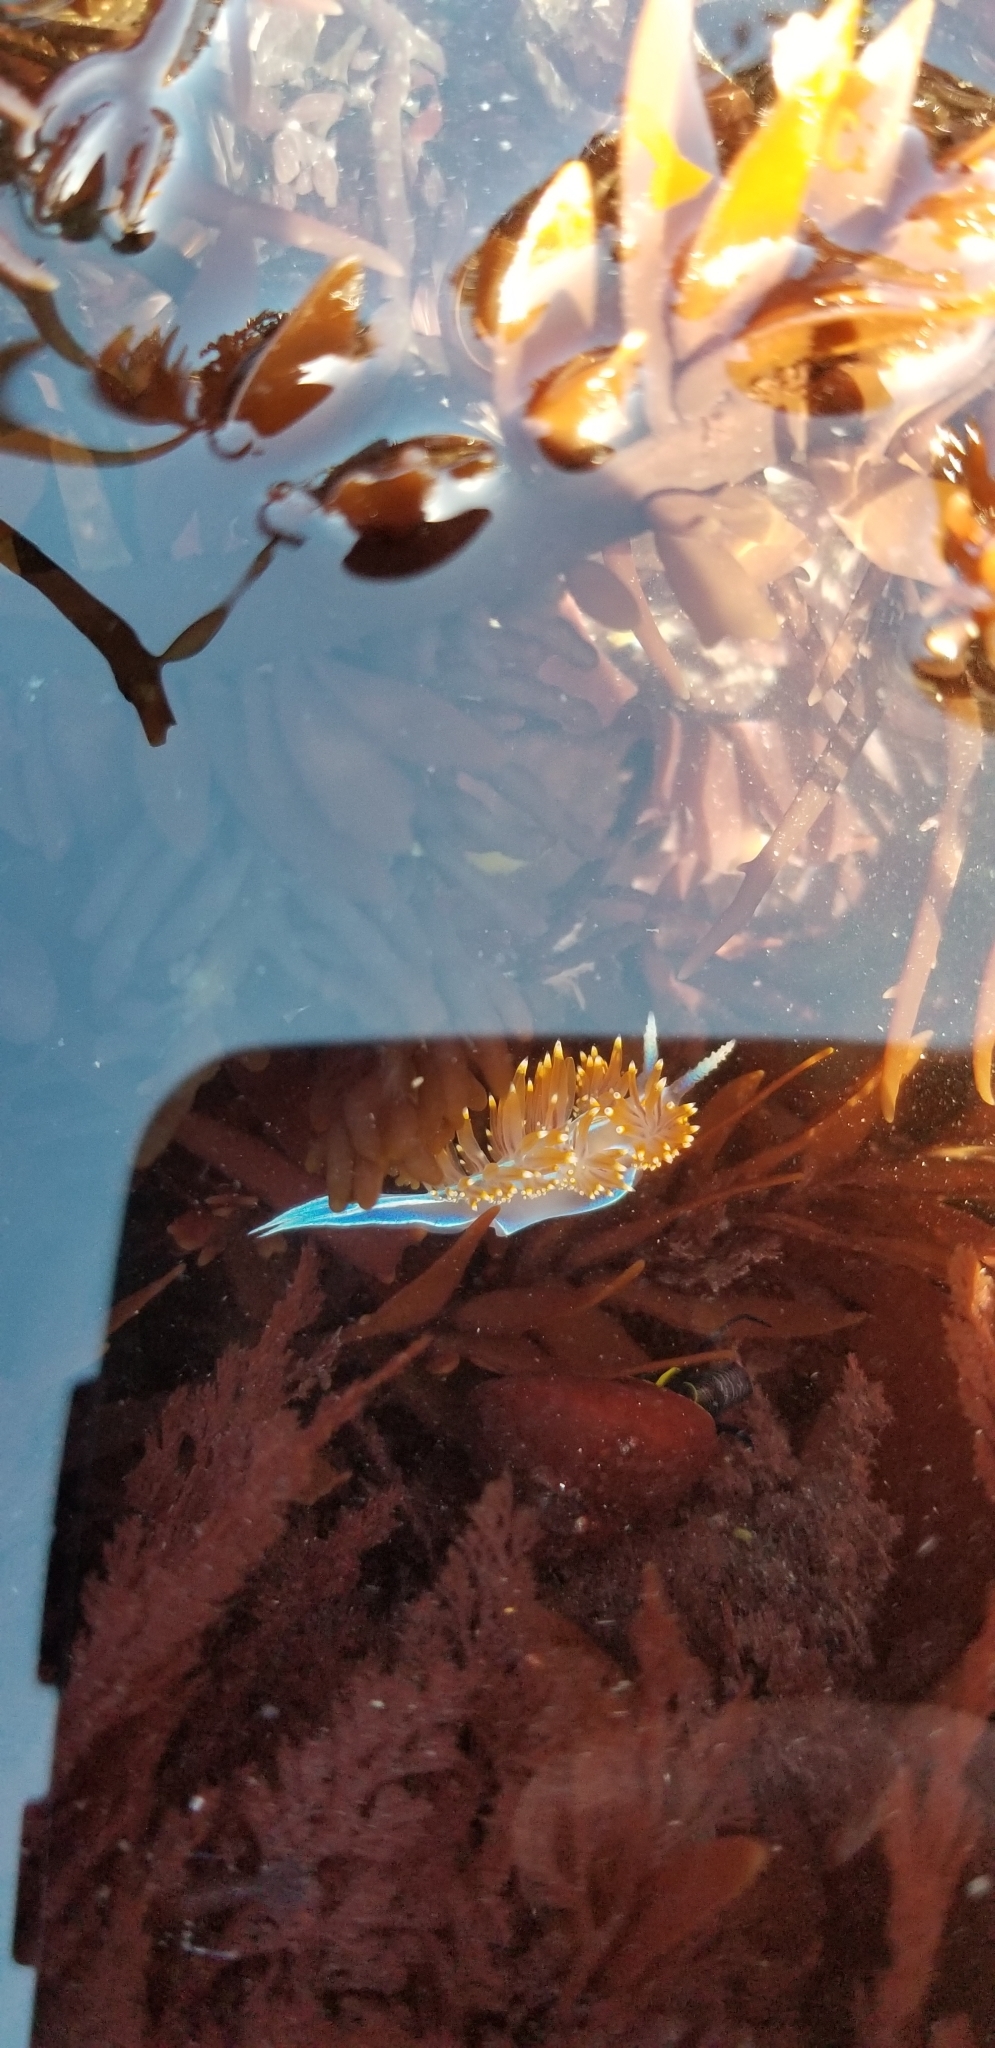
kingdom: Animalia
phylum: Mollusca
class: Gastropoda
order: Nudibranchia
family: Myrrhinidae
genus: Hermissenda
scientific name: Hermissenda opalescens
